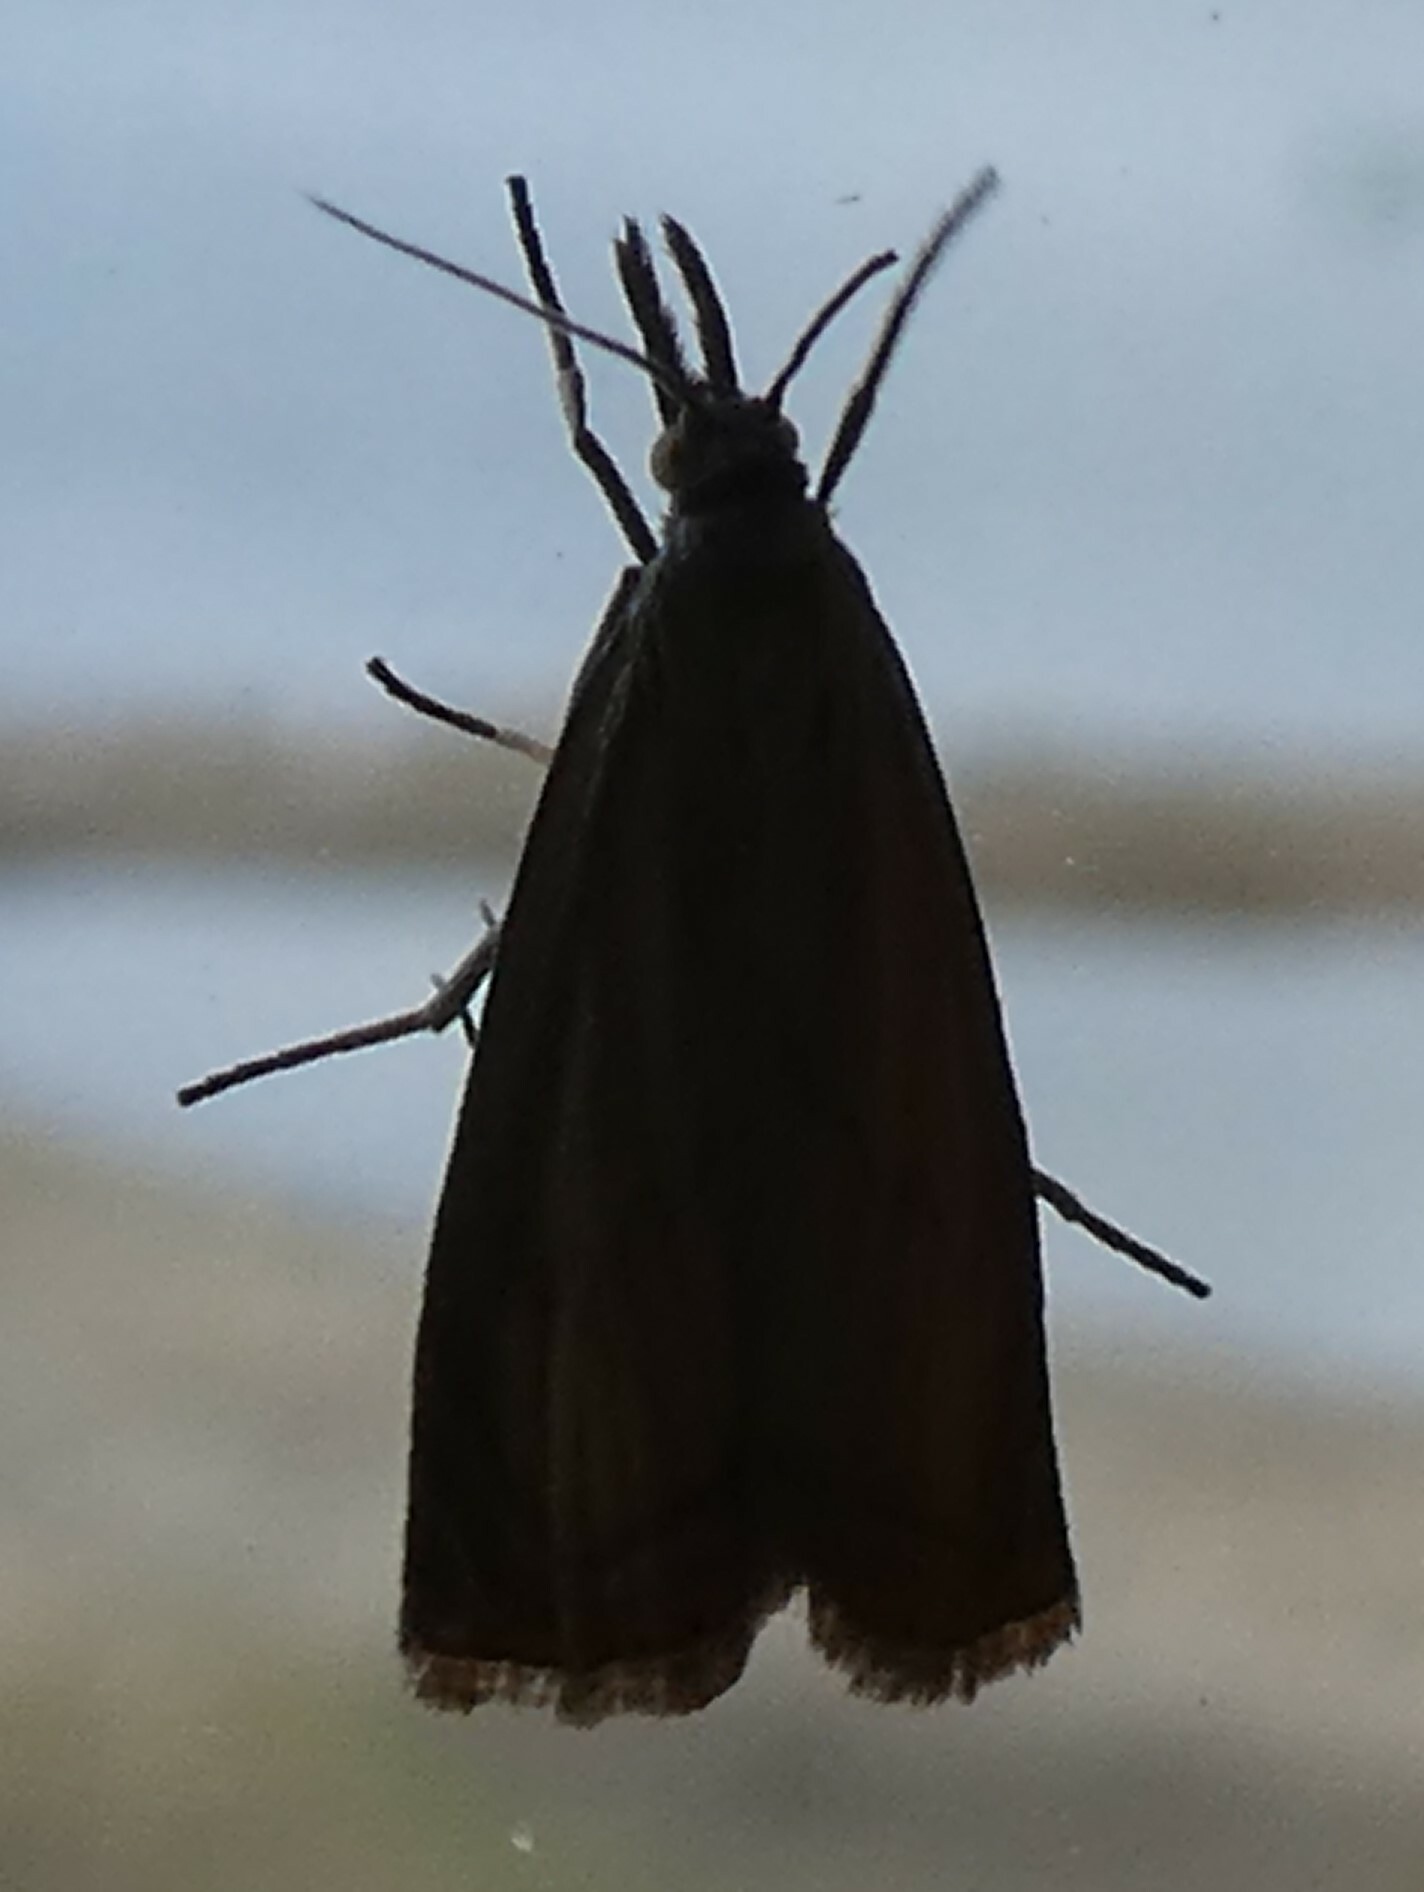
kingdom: Animalia
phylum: Arthropoda
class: Insecta
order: Lepidoptera
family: Crambidae
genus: Chrysoteuchia
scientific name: Chrysoteuchia culmella
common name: Garden grass-veneer
